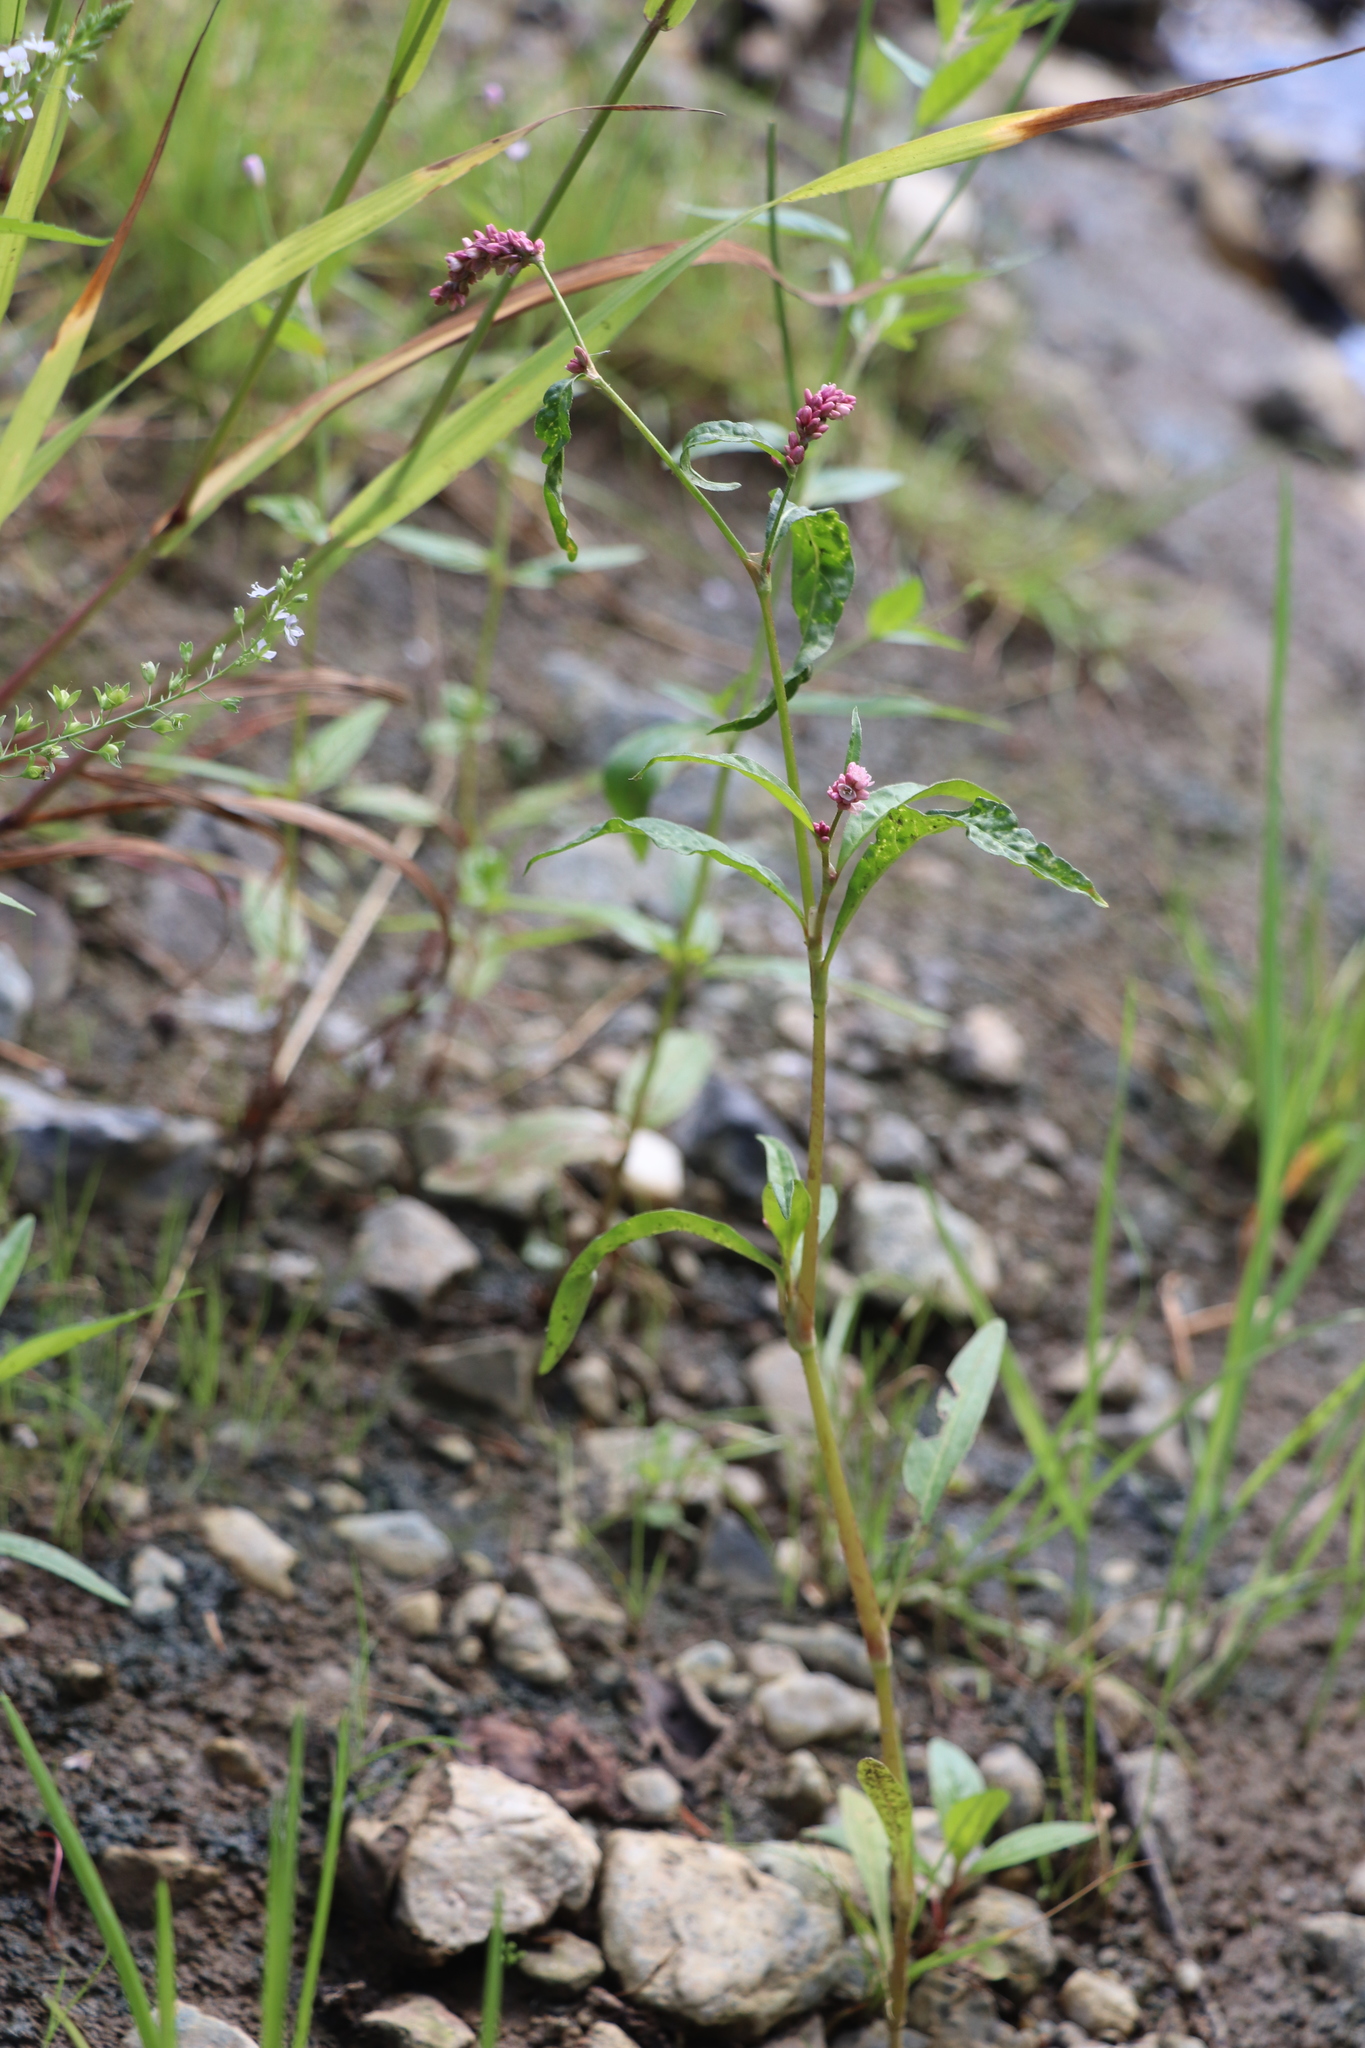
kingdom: Plantae
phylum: Tracheophyta
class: Magnoliopsida
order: Caryophyllales
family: Polygonaceae
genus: Persicaria
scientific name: Persicaria lapathifolia
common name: Curlytop knotweed
